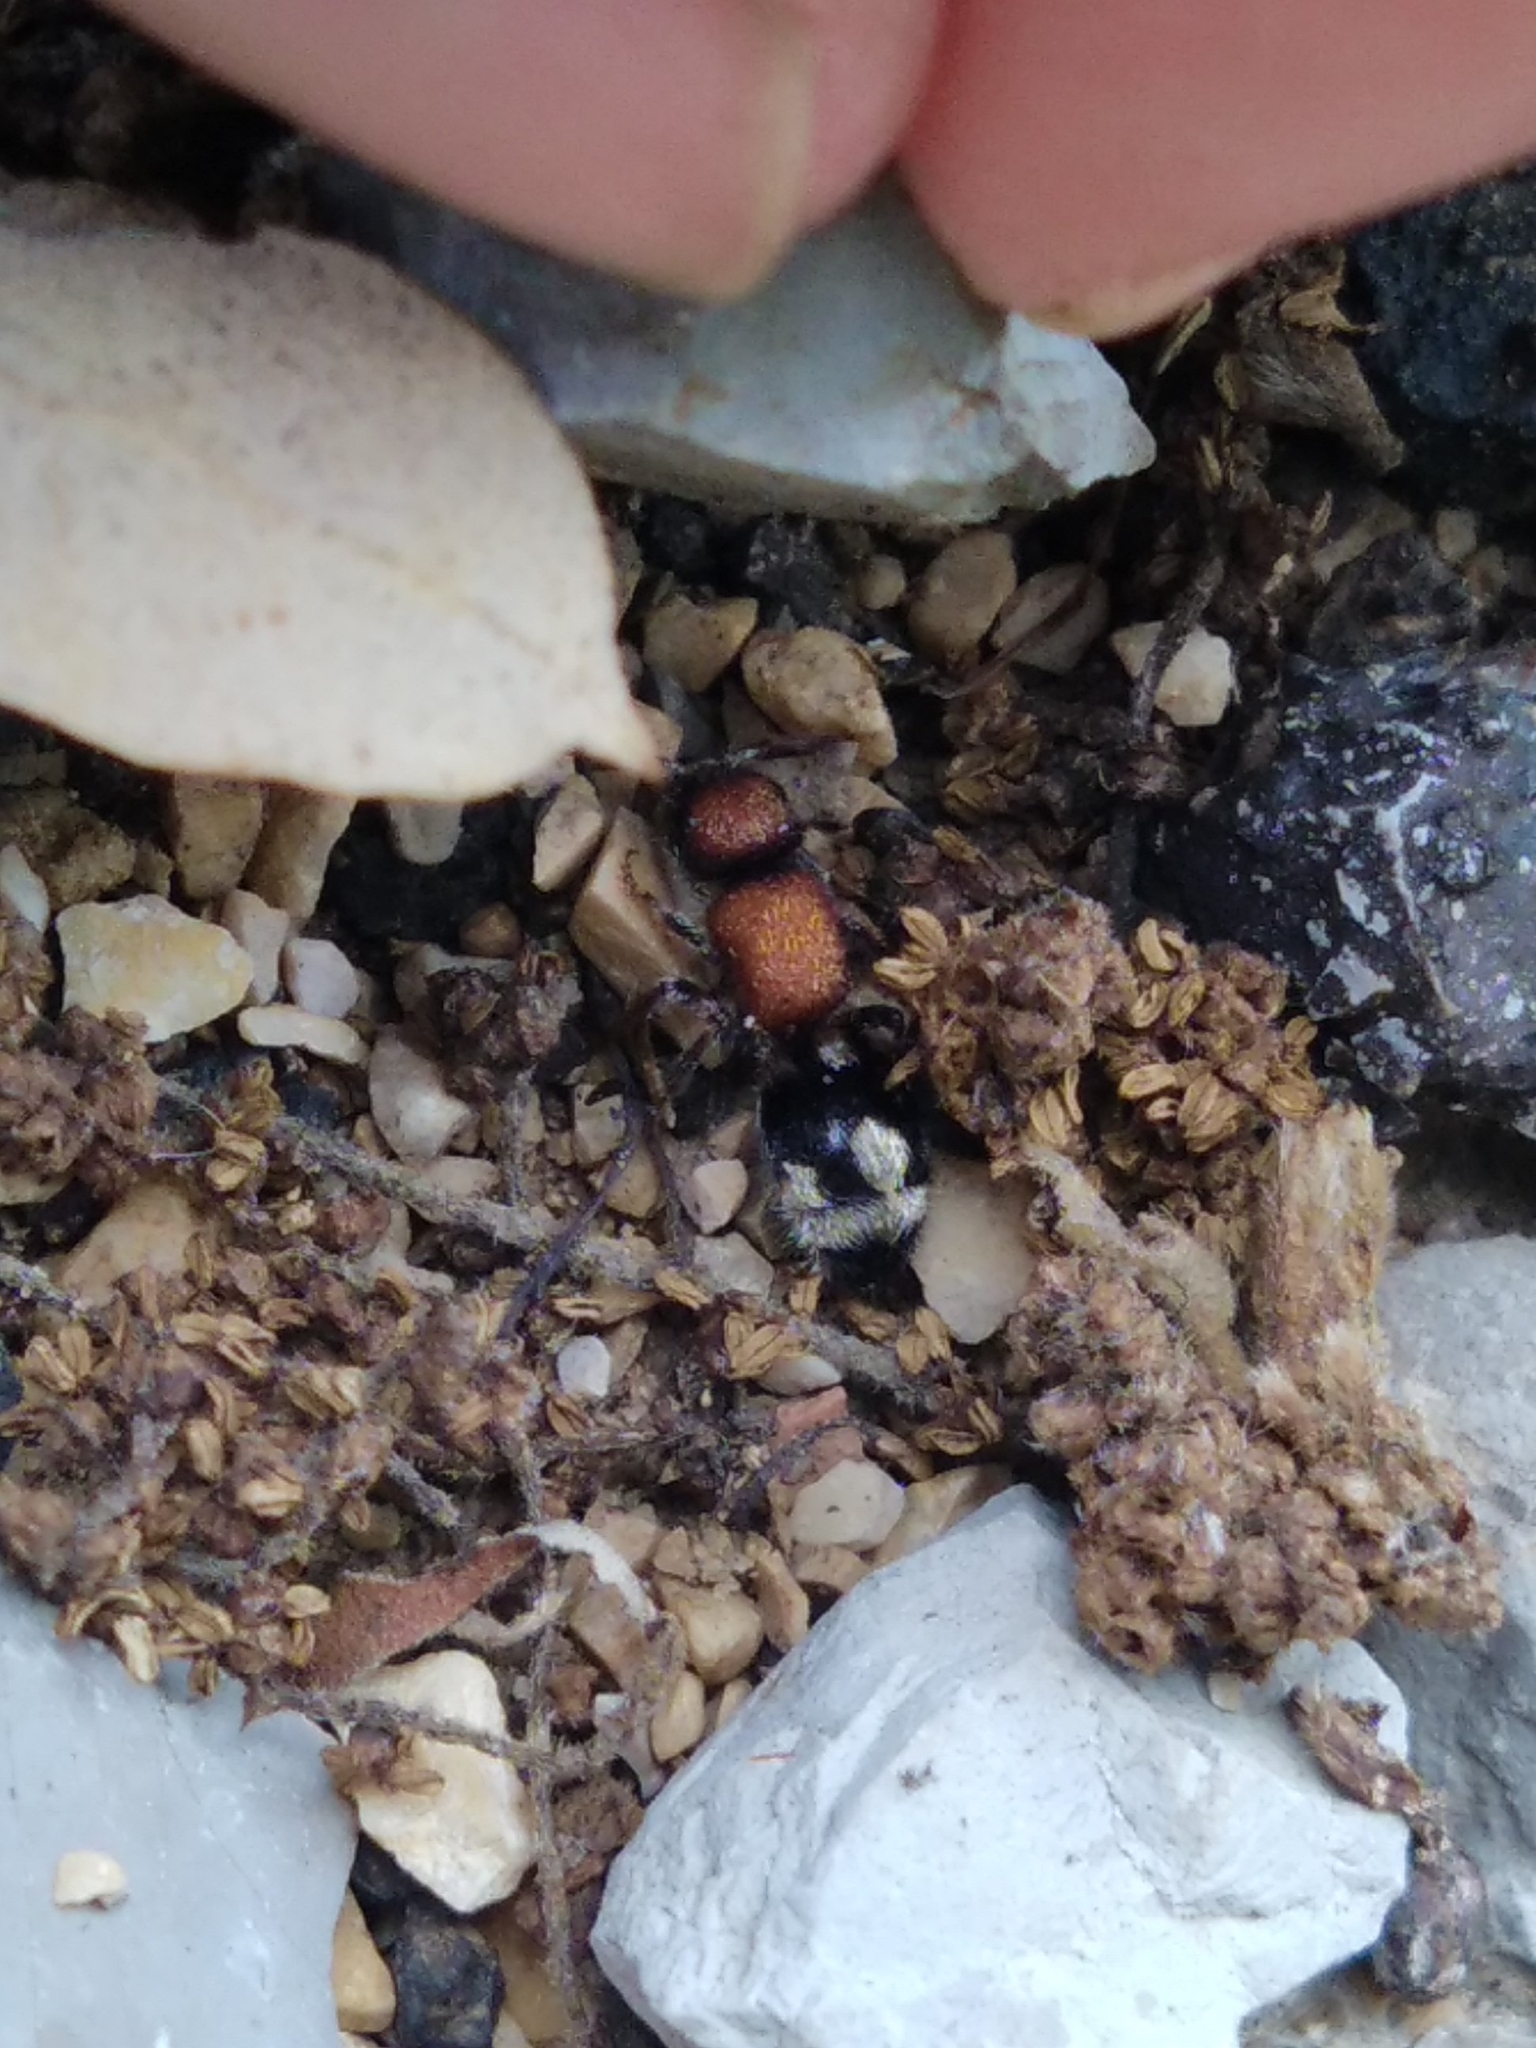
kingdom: Animalia
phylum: Arthropoda
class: Insecta
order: Hymenoptera
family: Mutillidae
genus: Ronisia
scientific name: Ronisia brutia
